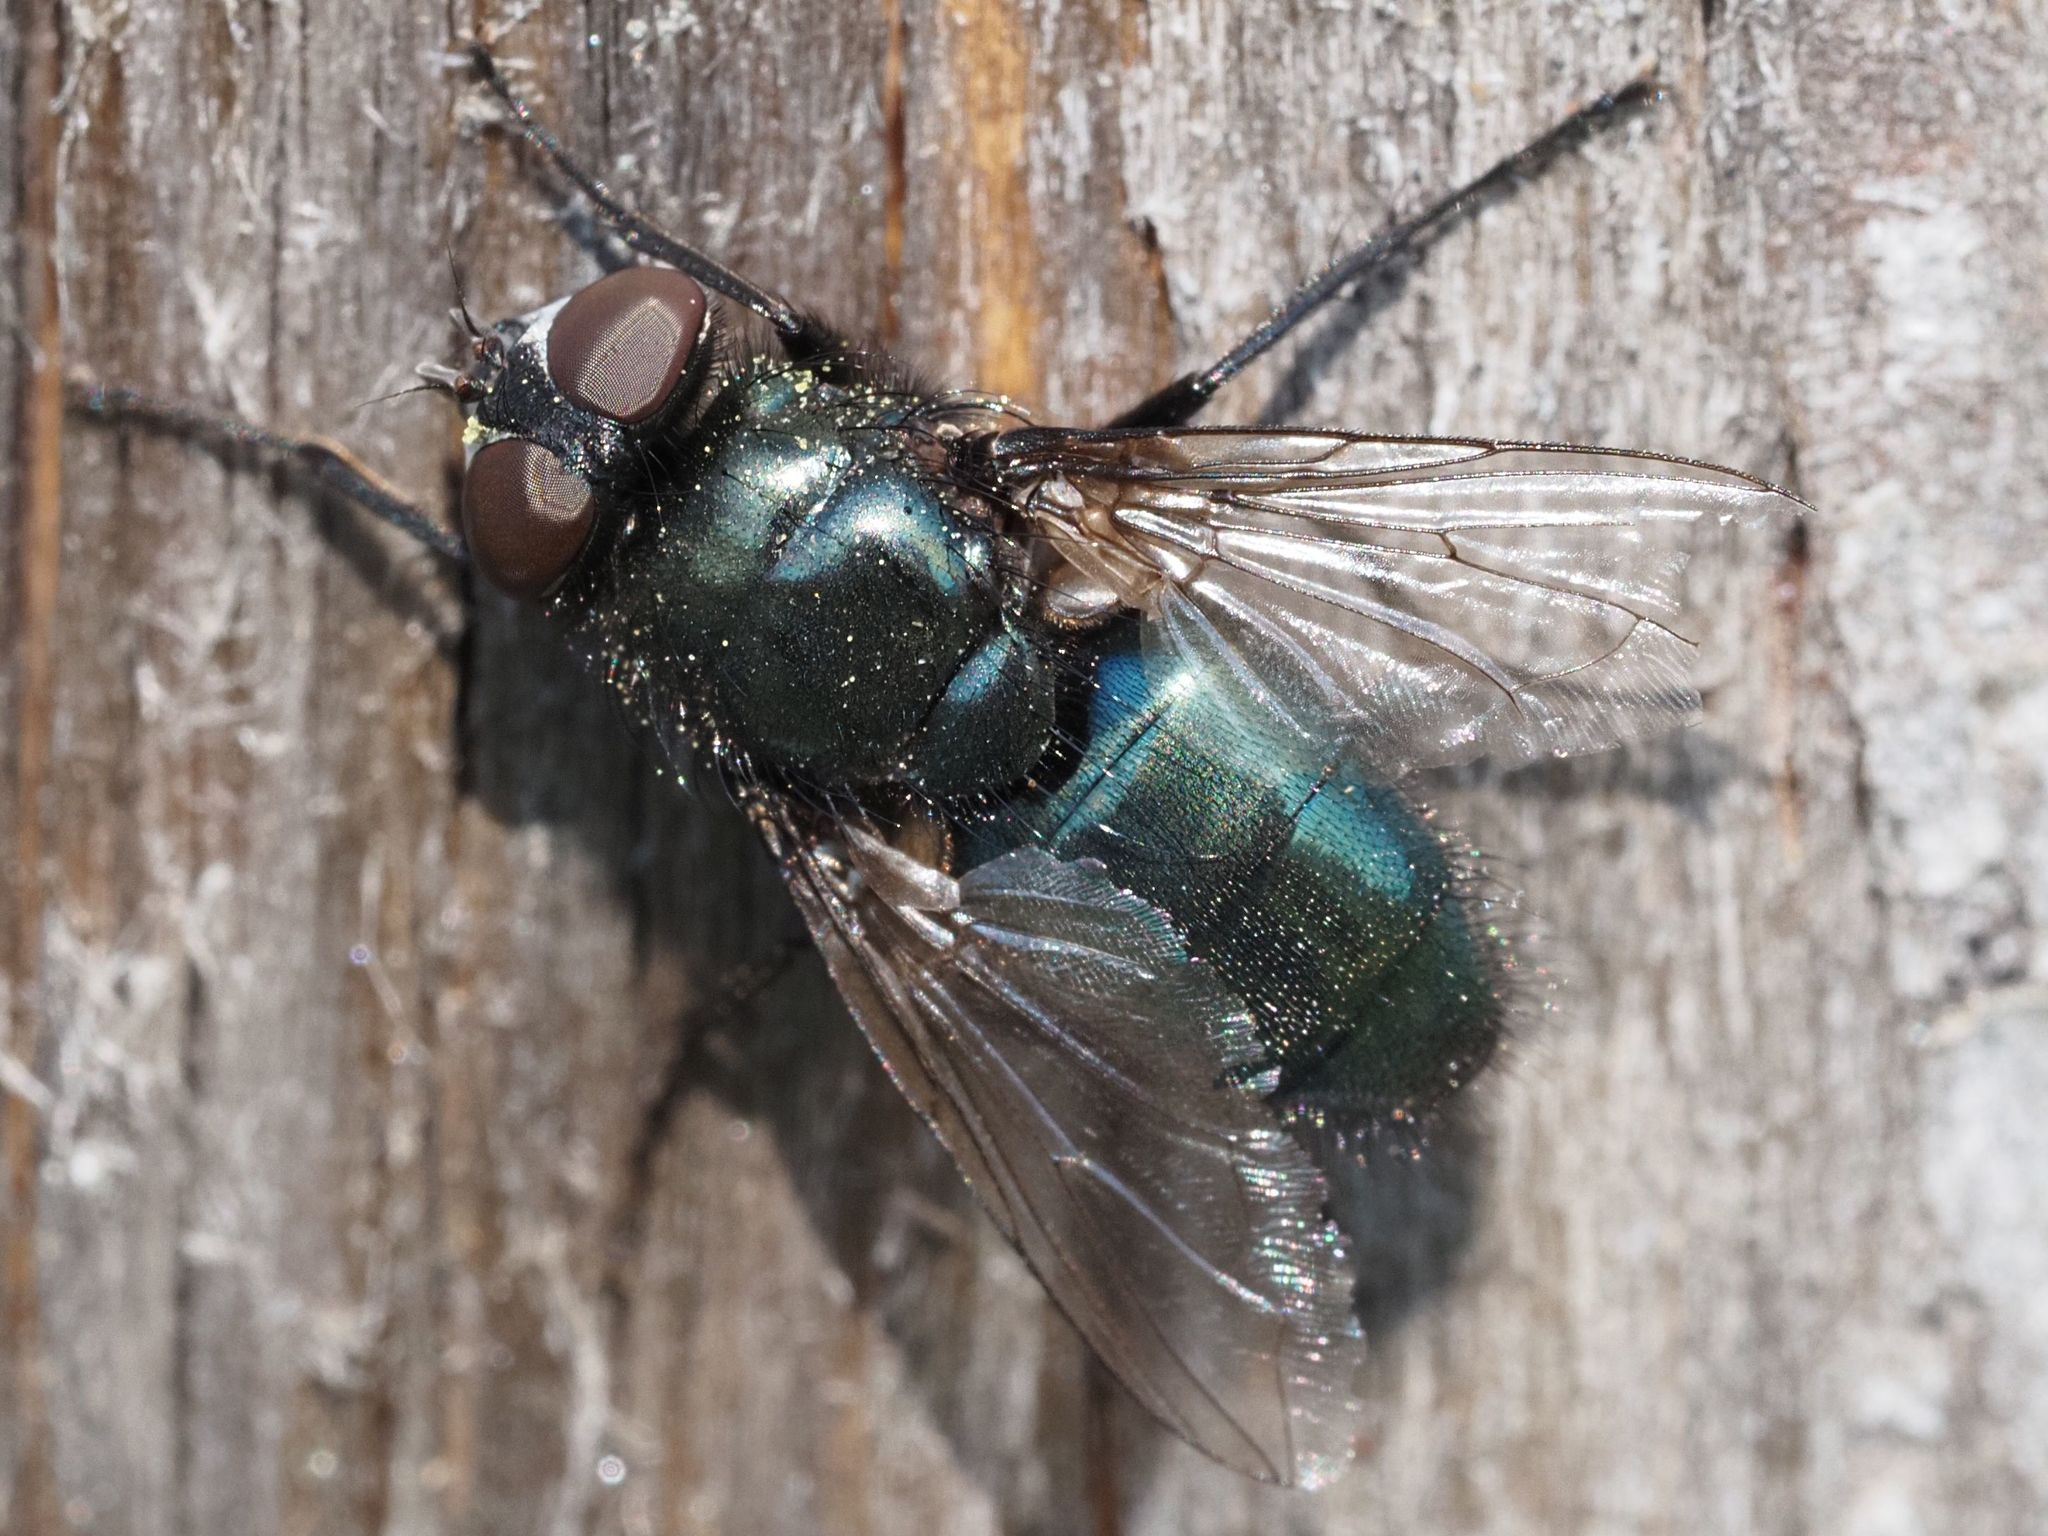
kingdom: Animalia
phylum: Arthropoda
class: Insecta
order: Diptera
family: Calliphoridae
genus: Protophormia
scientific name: Protophormia terraenovae
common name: Blackbottle
